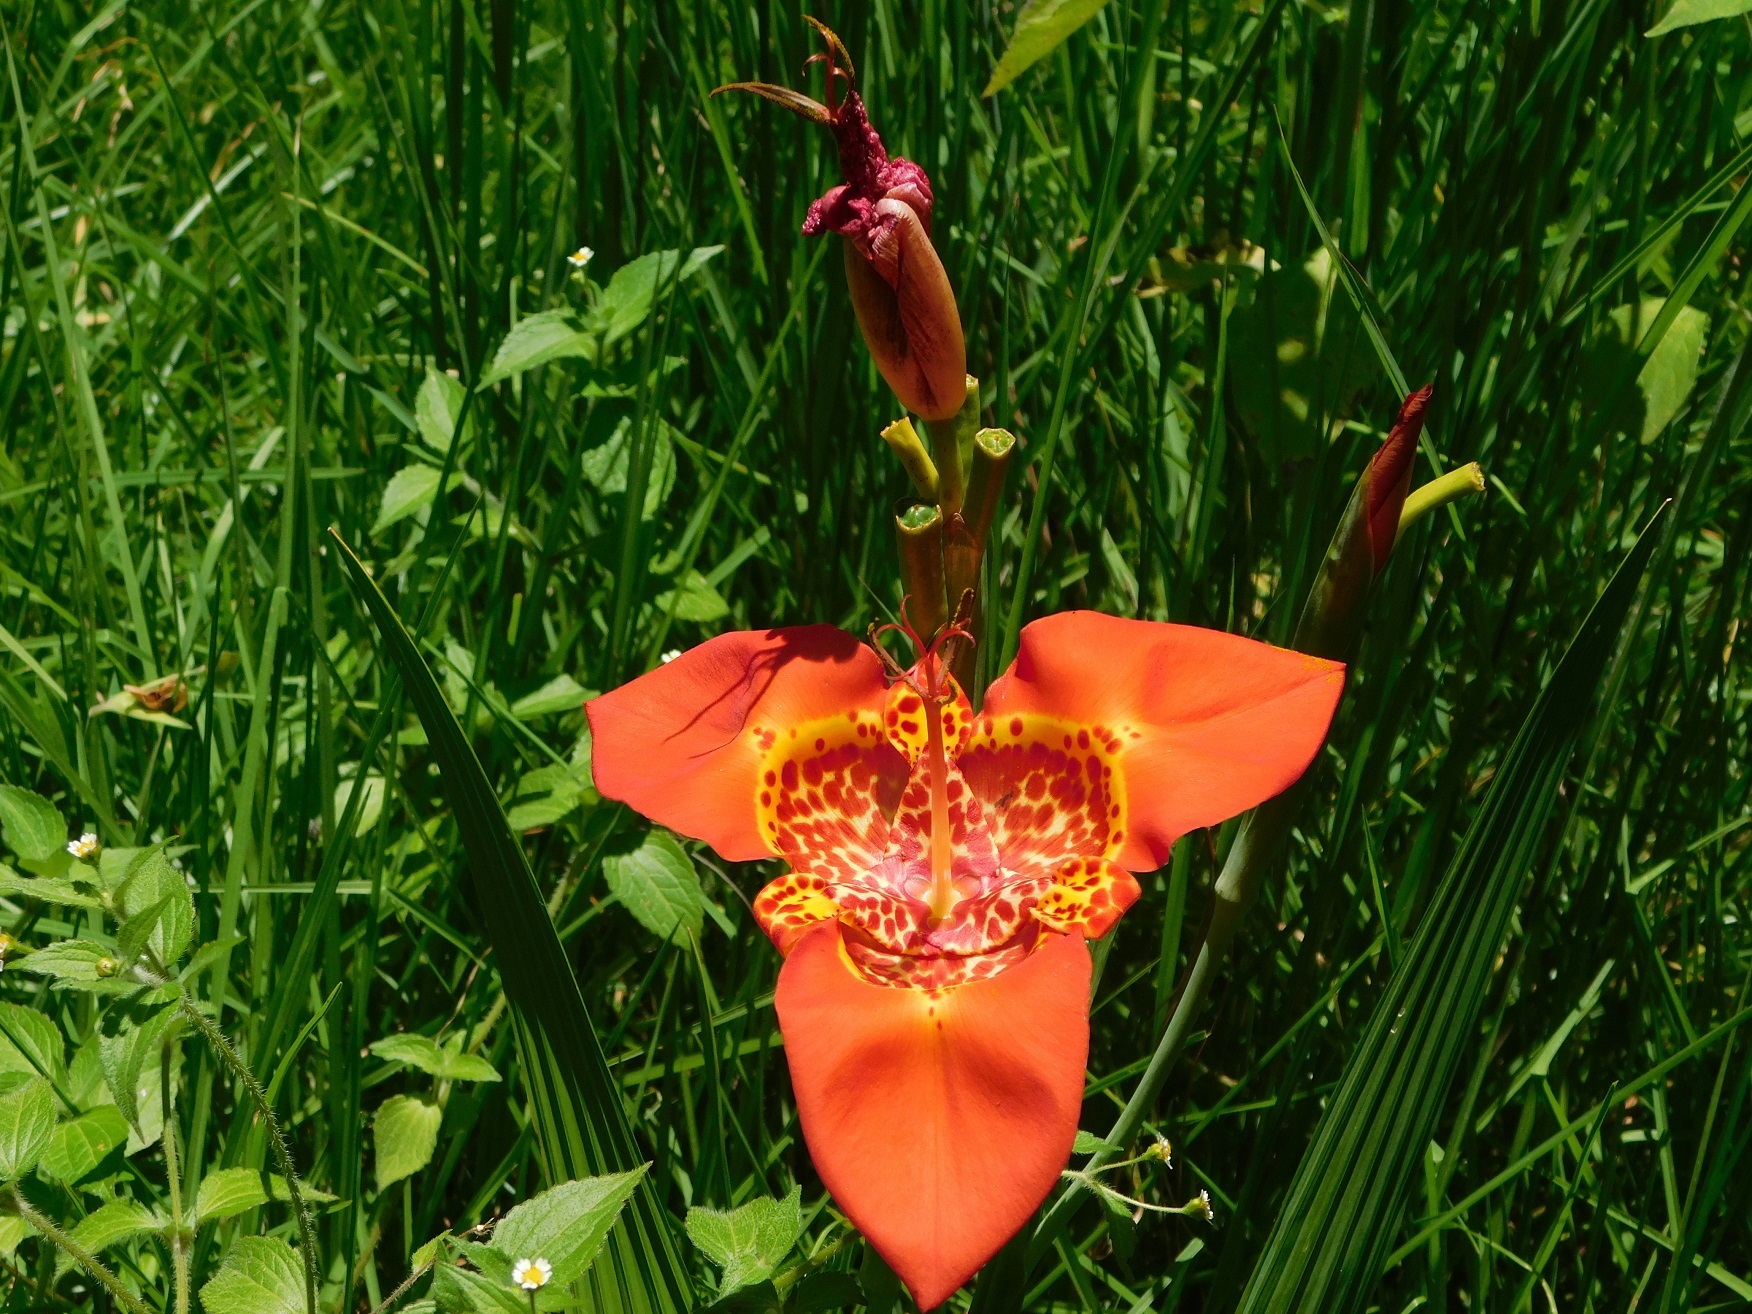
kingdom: Plantae
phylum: Tracheophyta
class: Liliopsida
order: Asparagales
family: Iridaceae
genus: Tigridia
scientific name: Tigridia pavonia
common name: Peacock-flower
